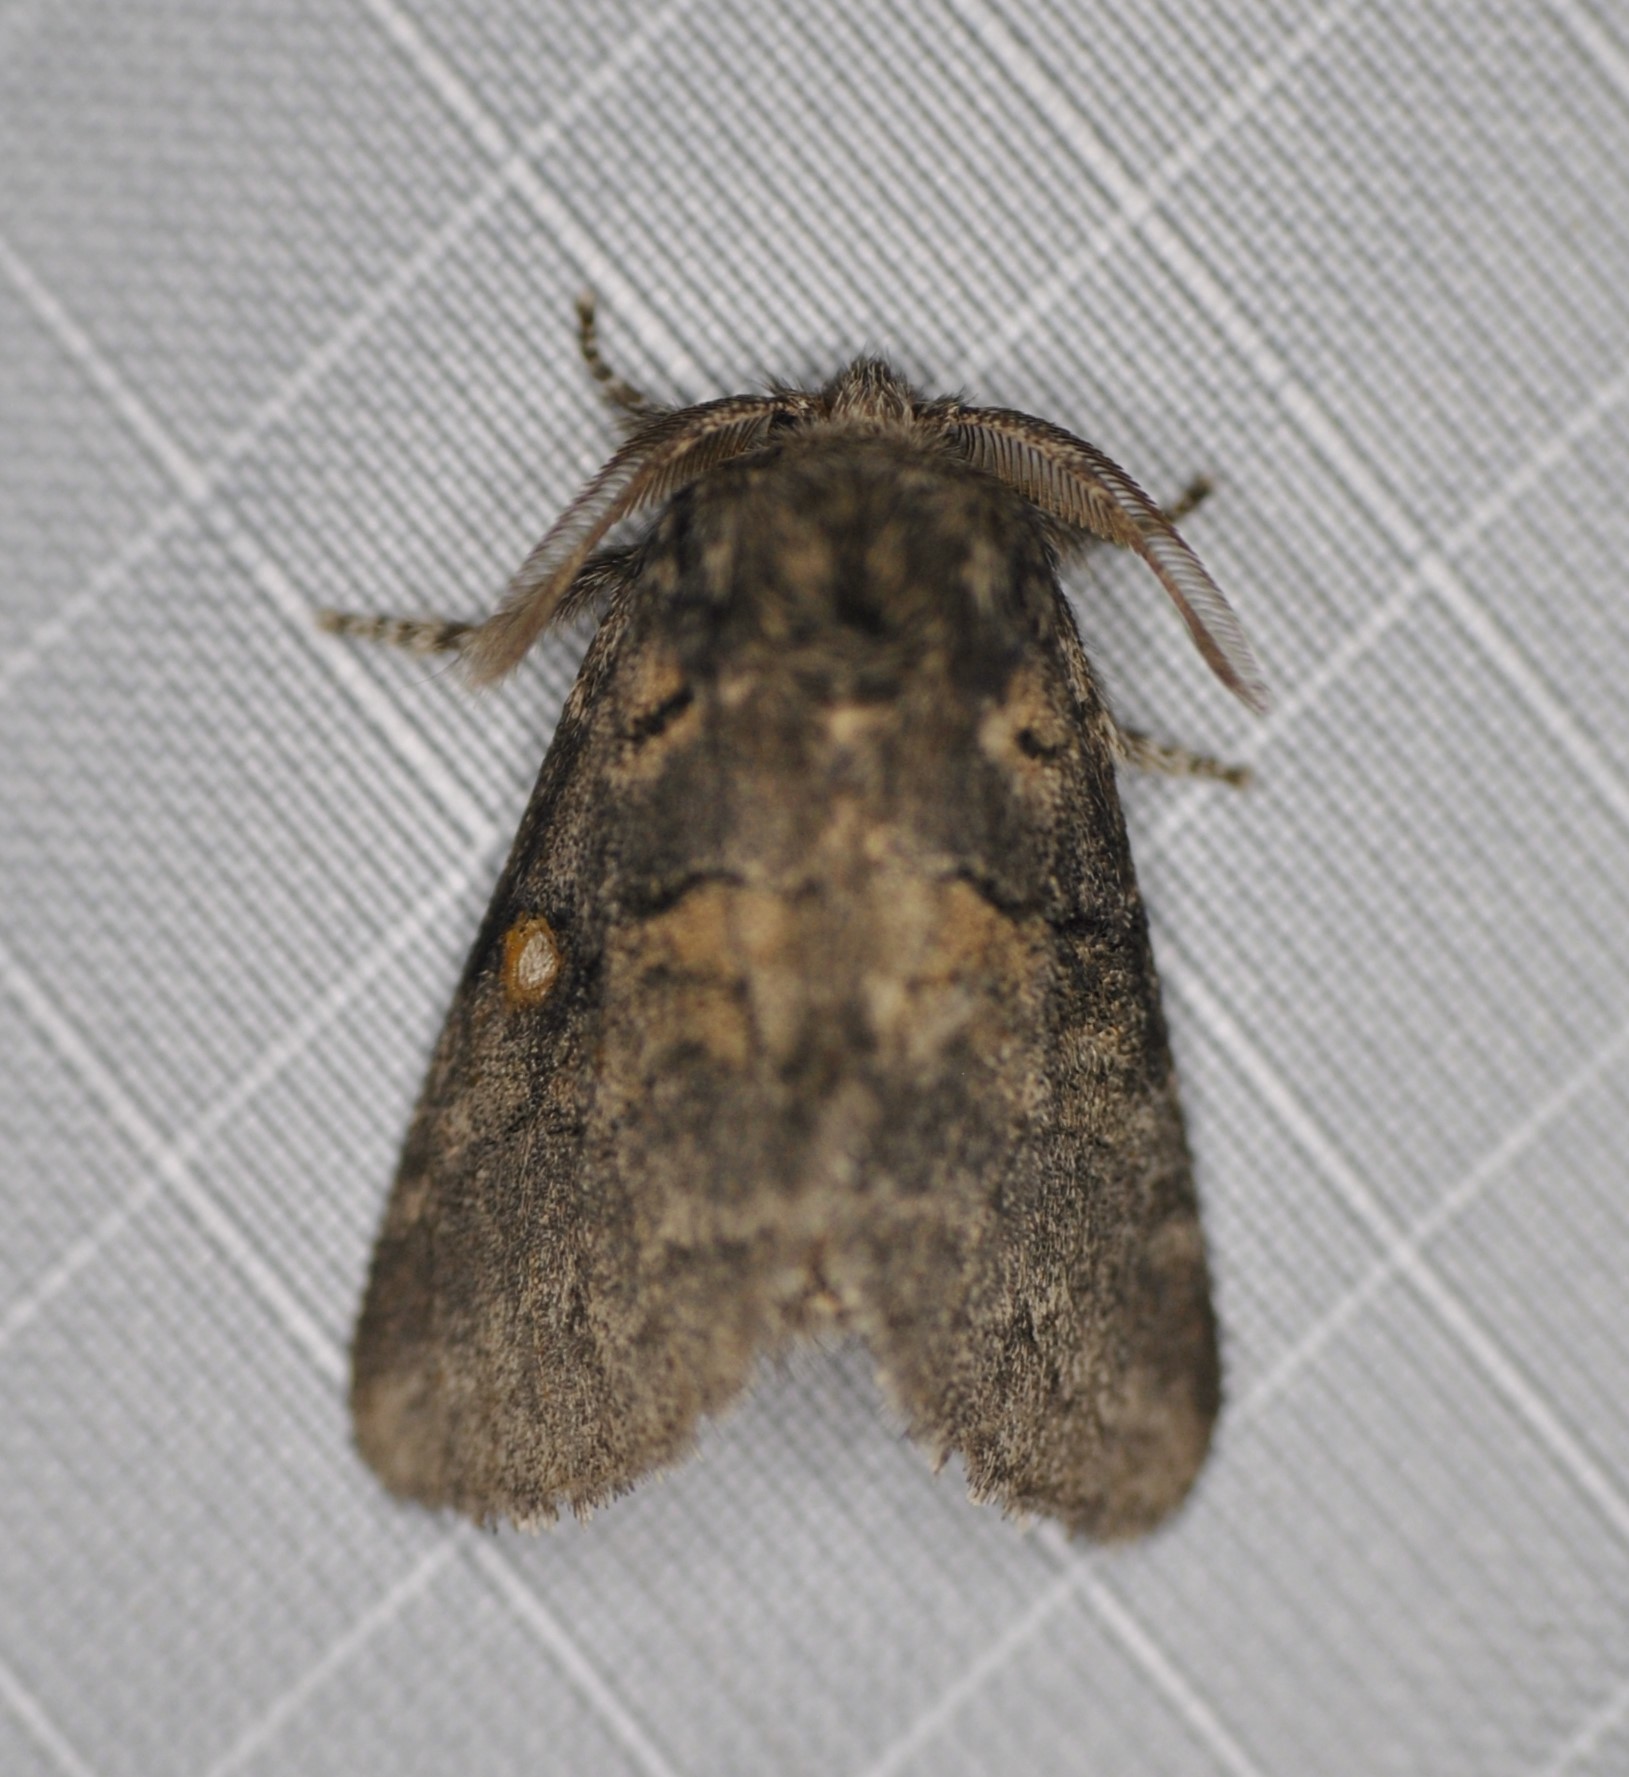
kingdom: Animalia
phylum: Arthropoda
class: Insecta
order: Lepidoptera
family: Notodontidae
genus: Gluphisia
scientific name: Gluphisia septentrionis
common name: Common gluphisia
